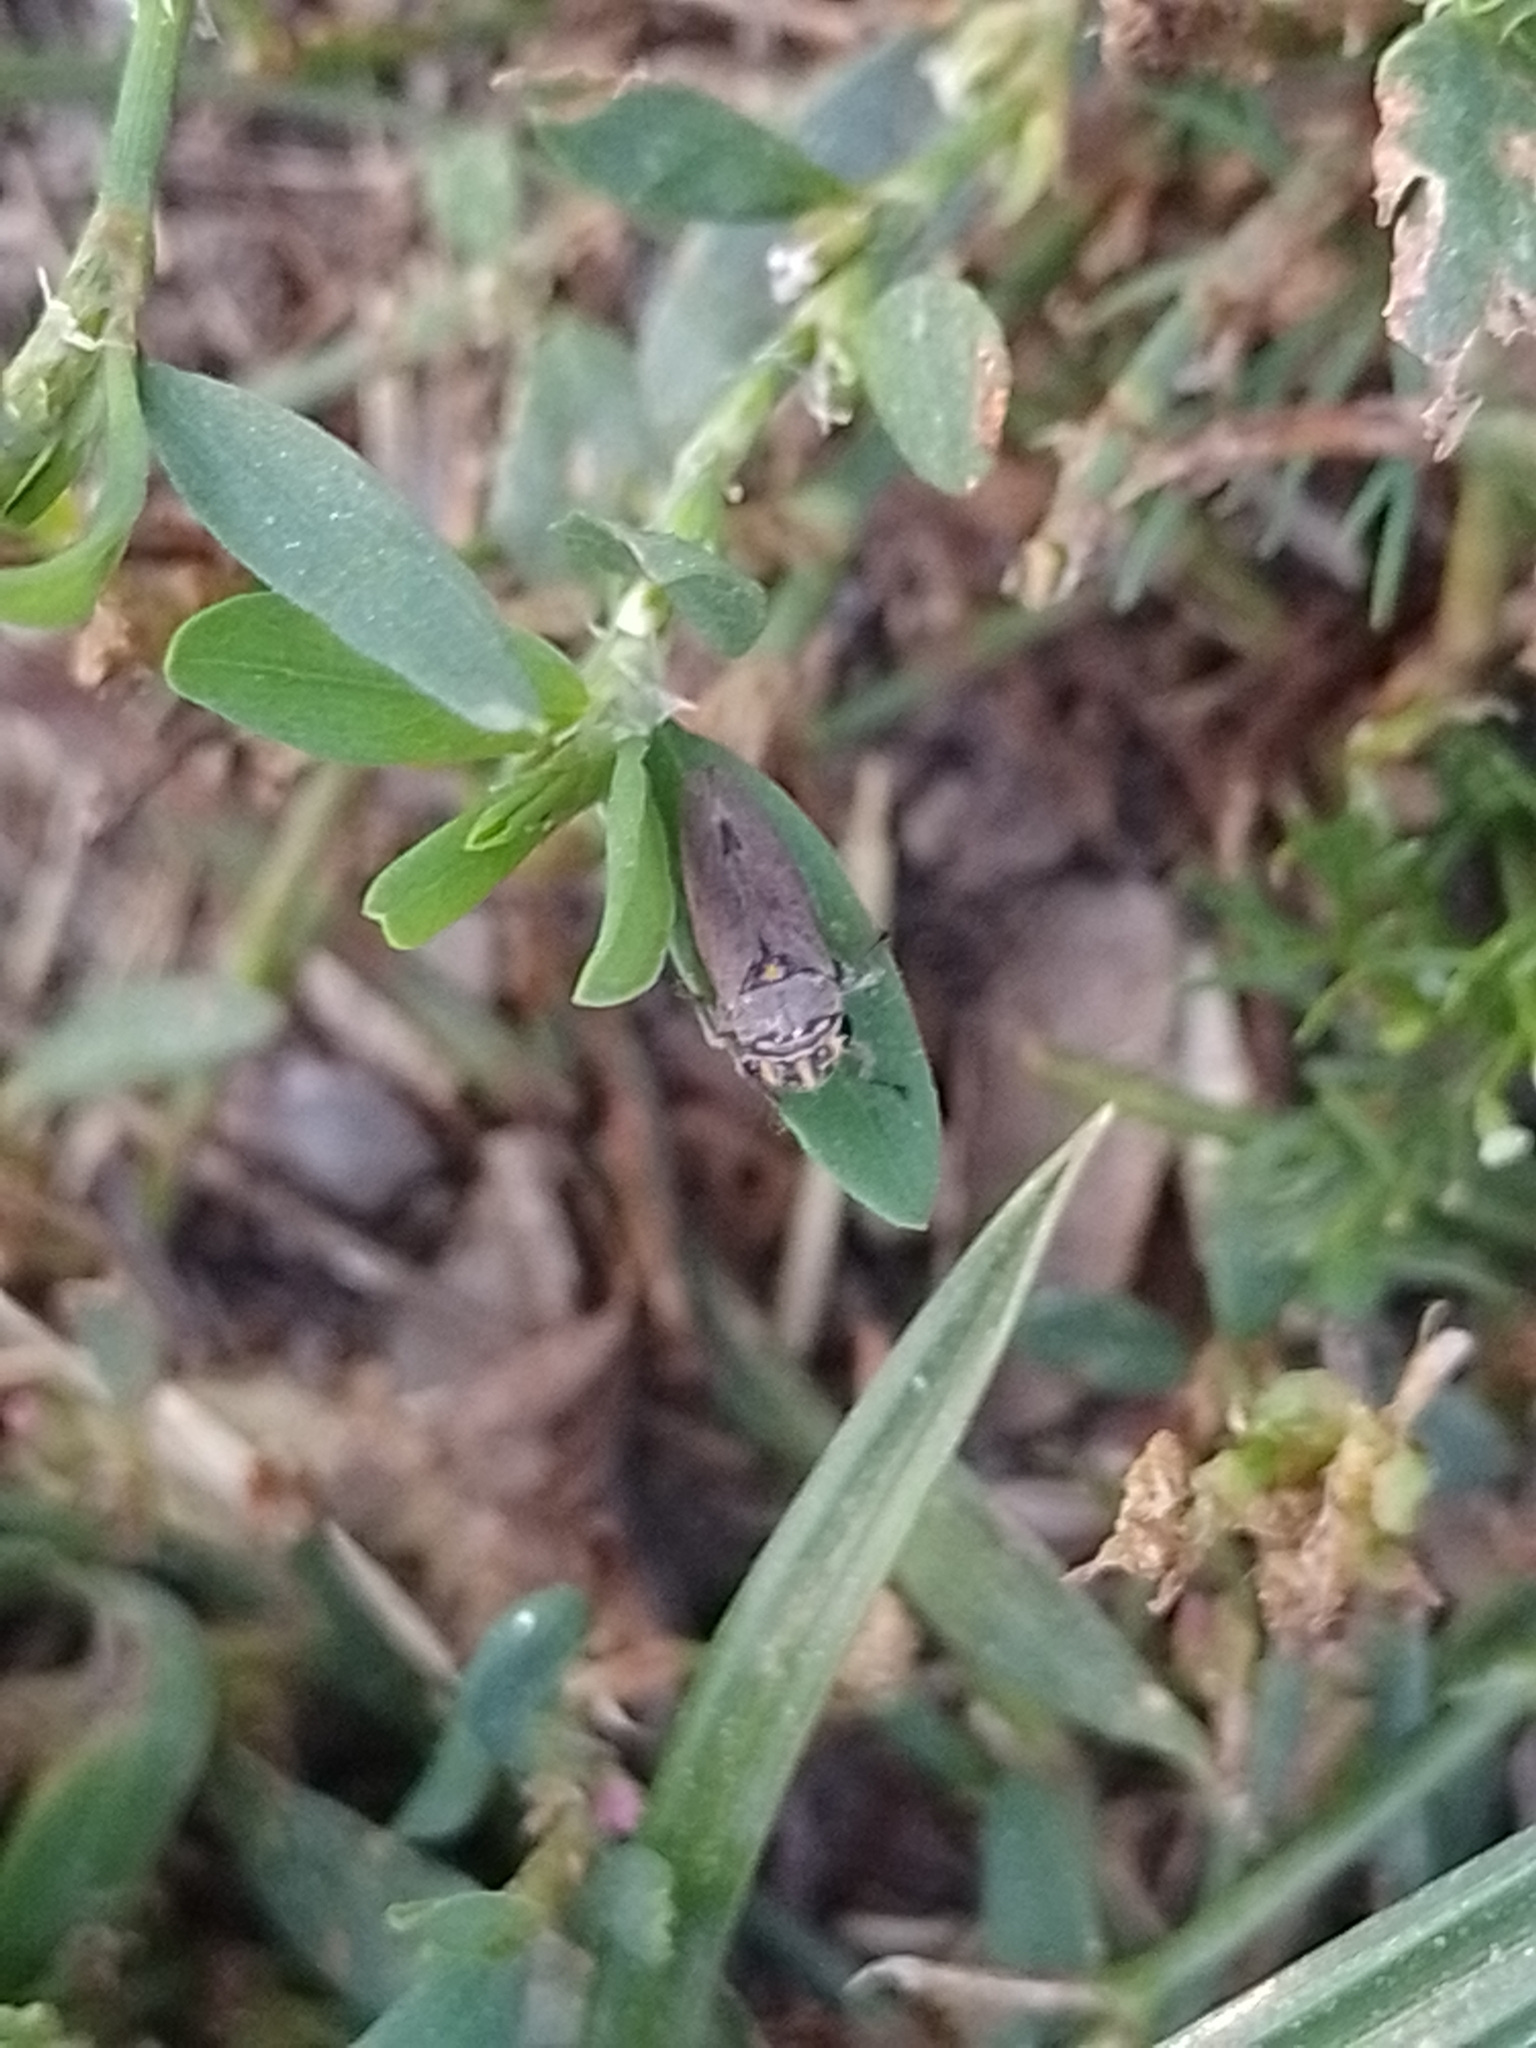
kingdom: Animalia
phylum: Arthropoda
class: Insecta
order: Hemiptera
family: Cicadellidae
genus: Dechacona
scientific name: Dechacona missionum
